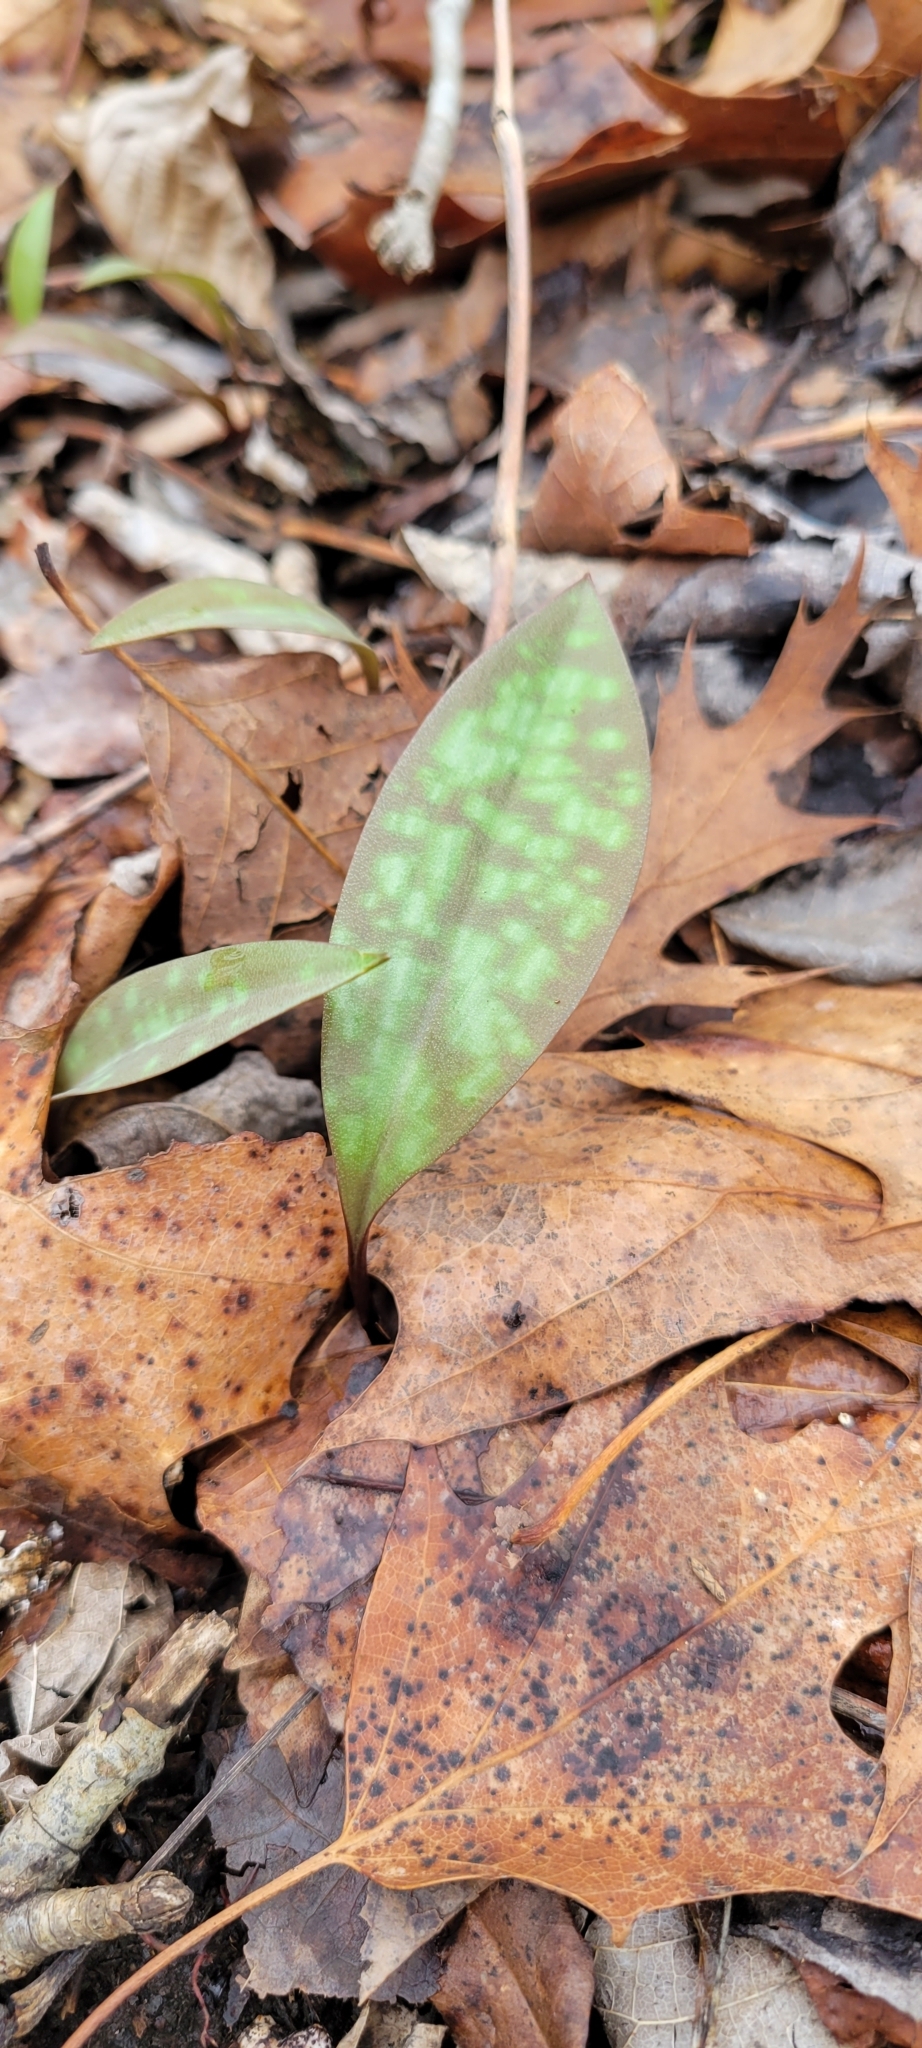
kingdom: Plantae
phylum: Tracheophyta
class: Liliopsida
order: Liliales
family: Liliaceae
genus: Erythronium
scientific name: Erythronium
